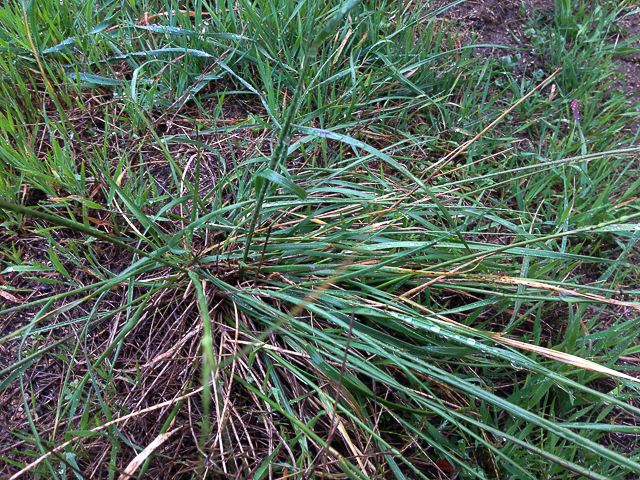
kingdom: Plantae
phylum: Tracheophyta
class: Liliopsida
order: Poales
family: Poaceae
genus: Nassella
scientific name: Nassella pulchra
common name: Purple needlegrass
